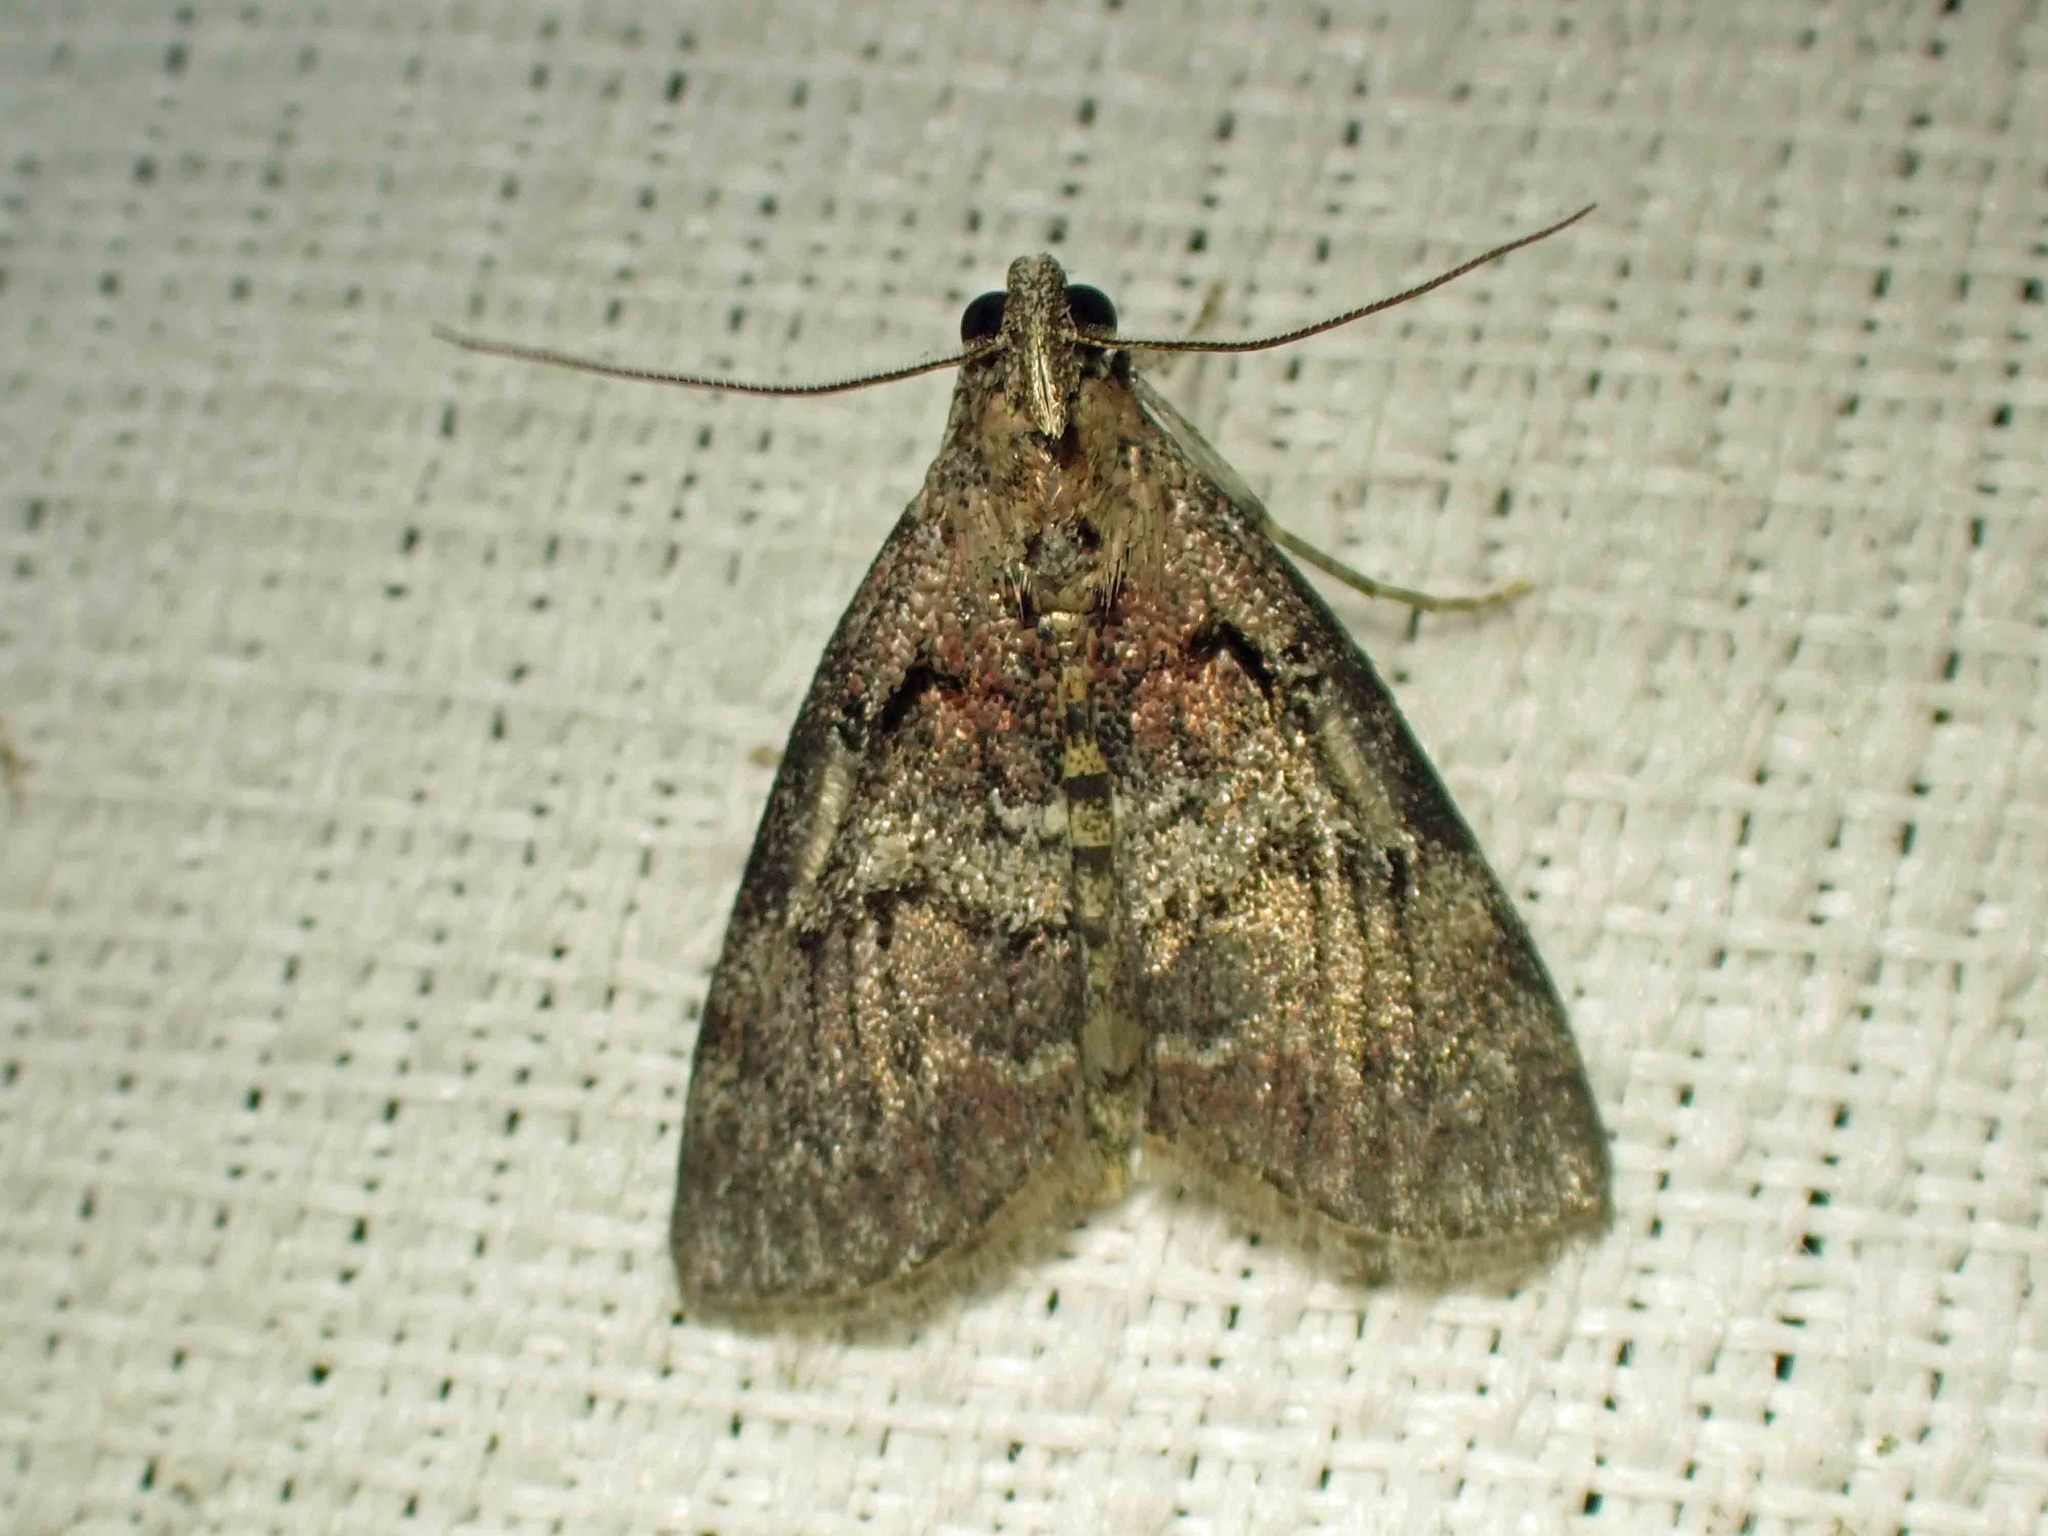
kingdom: Animalia
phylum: Arthropoda
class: Insecta
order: Lepidoptera
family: Pyralidae
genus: Pococera
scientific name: Pococera asperatella
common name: Maple webworm moth
